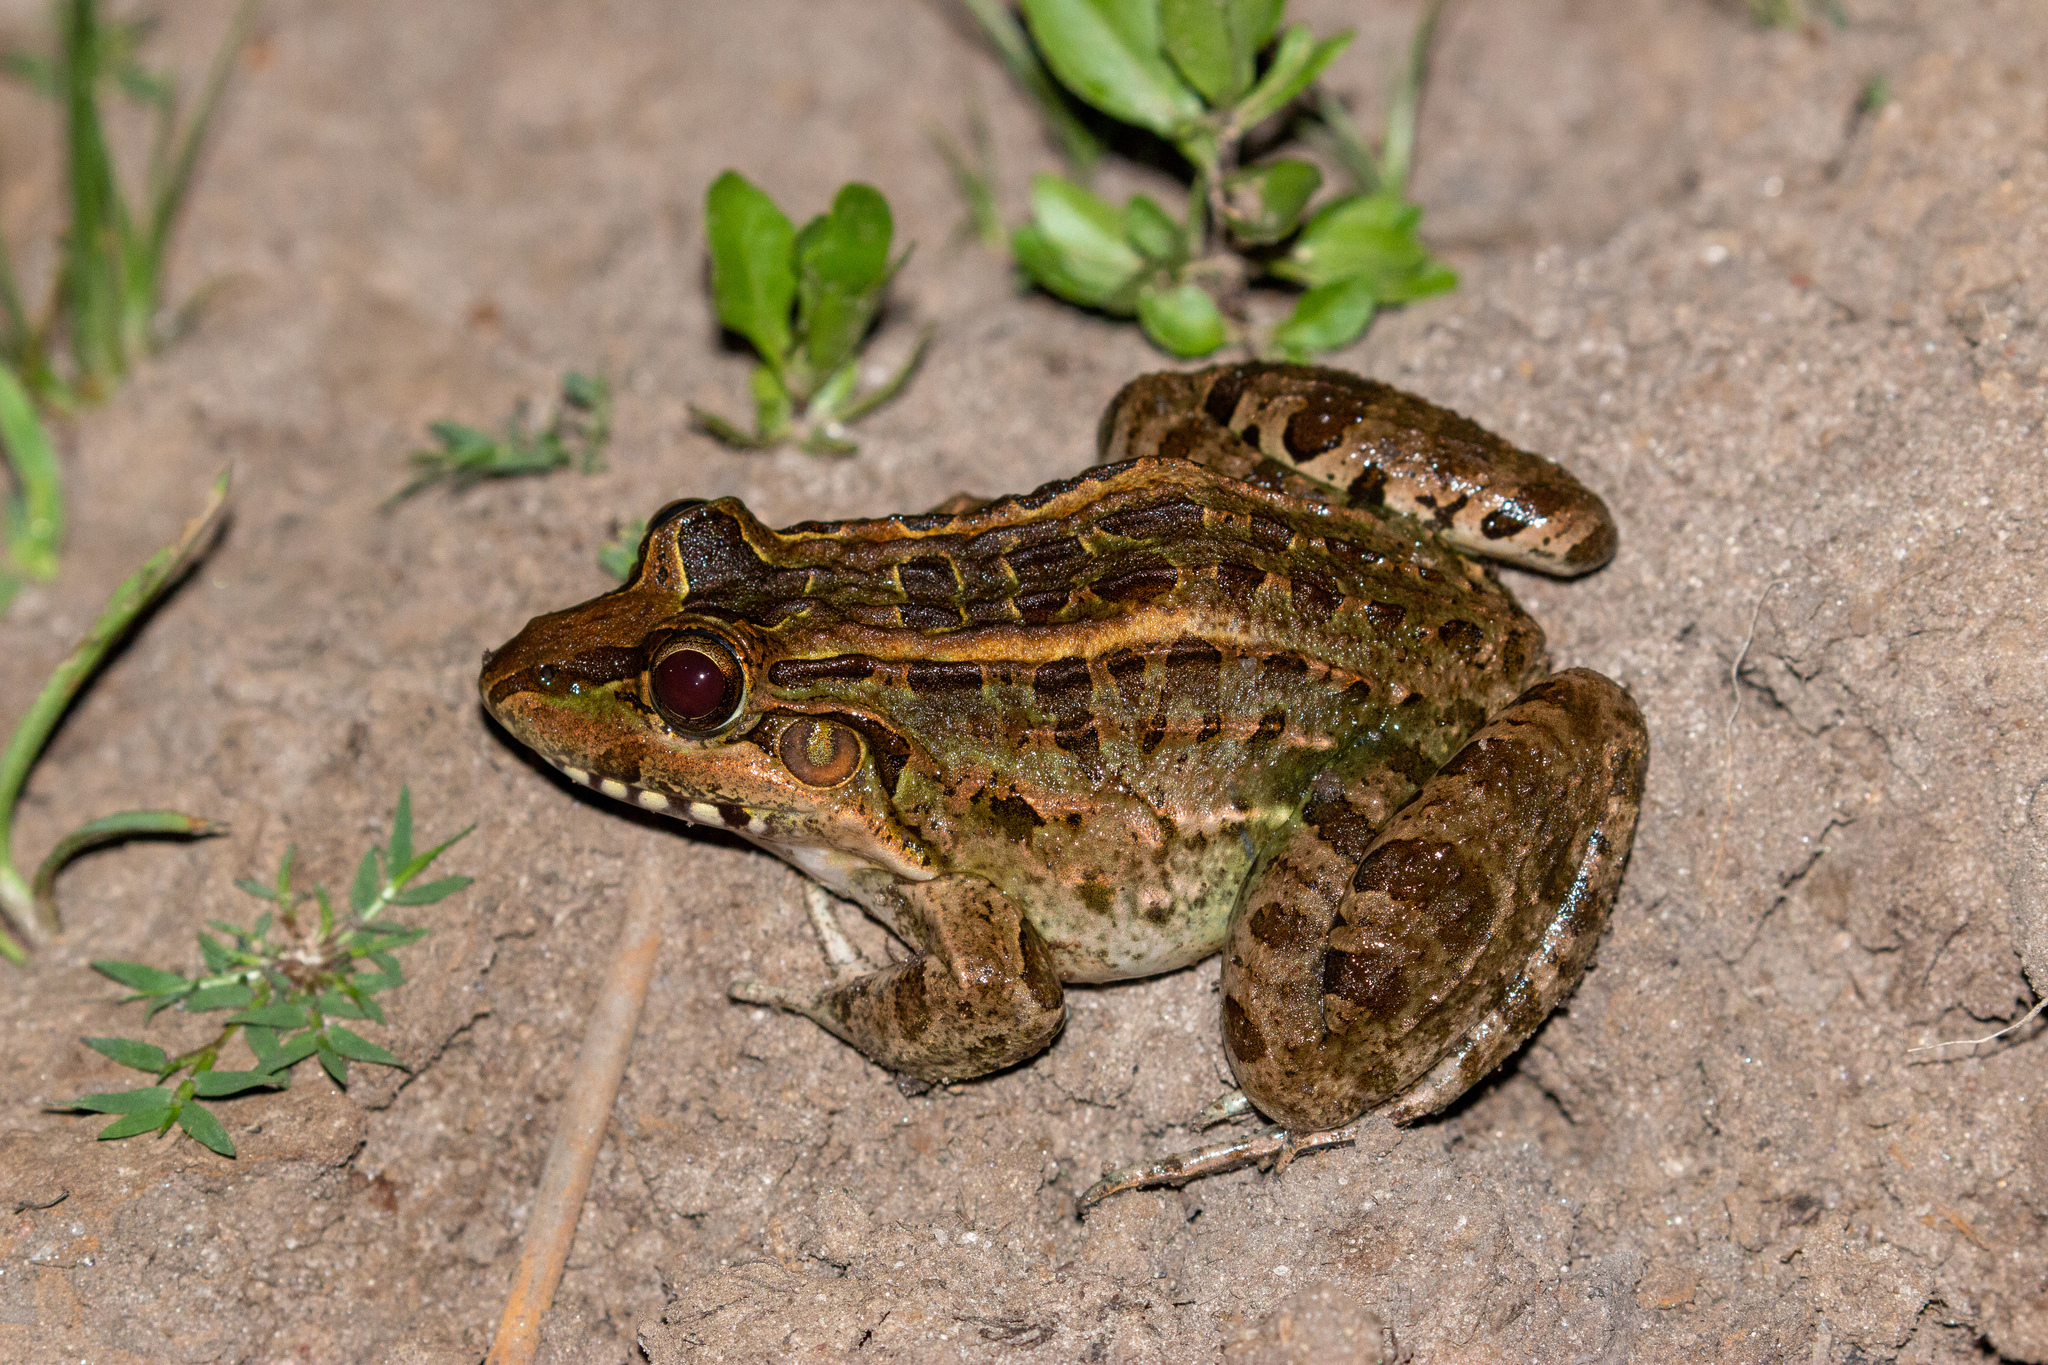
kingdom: Animalia
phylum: Chordata
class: Amphibia
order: Anura
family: Leptodactylidae
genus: Leptodactylus
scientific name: Leptodactylus macrosternum
